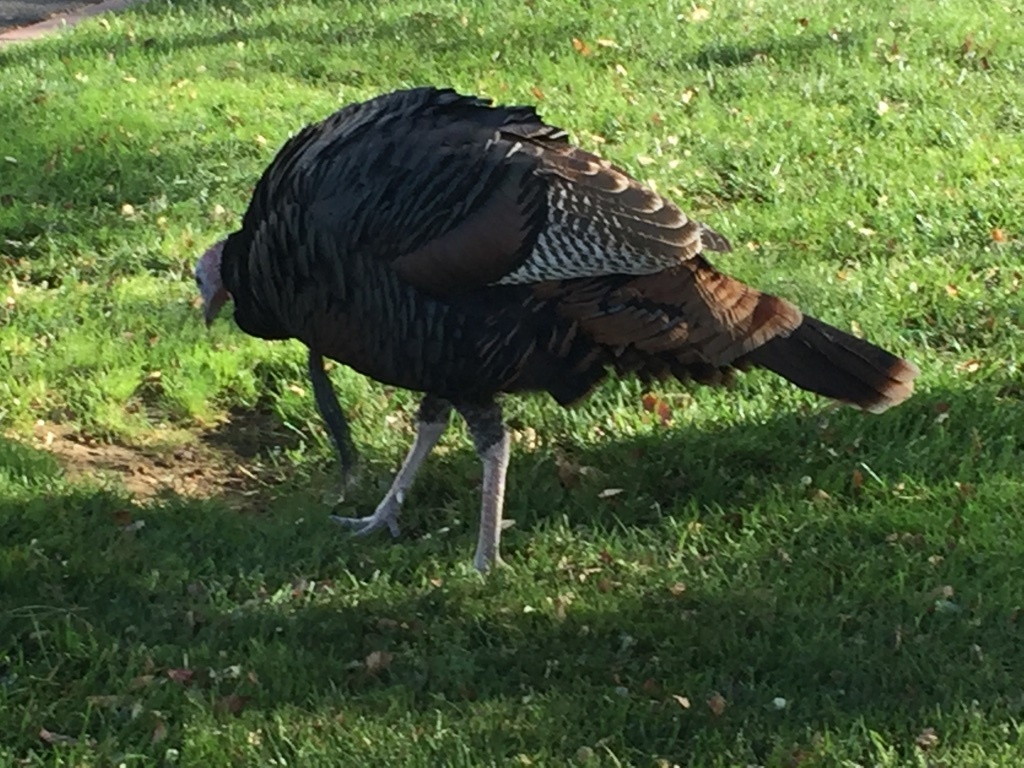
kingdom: Animalia
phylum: Chordata
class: Aves
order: Galliformes
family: Phasianidae
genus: Meleagris
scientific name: Meleagris gallopavo
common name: Wild turkey
